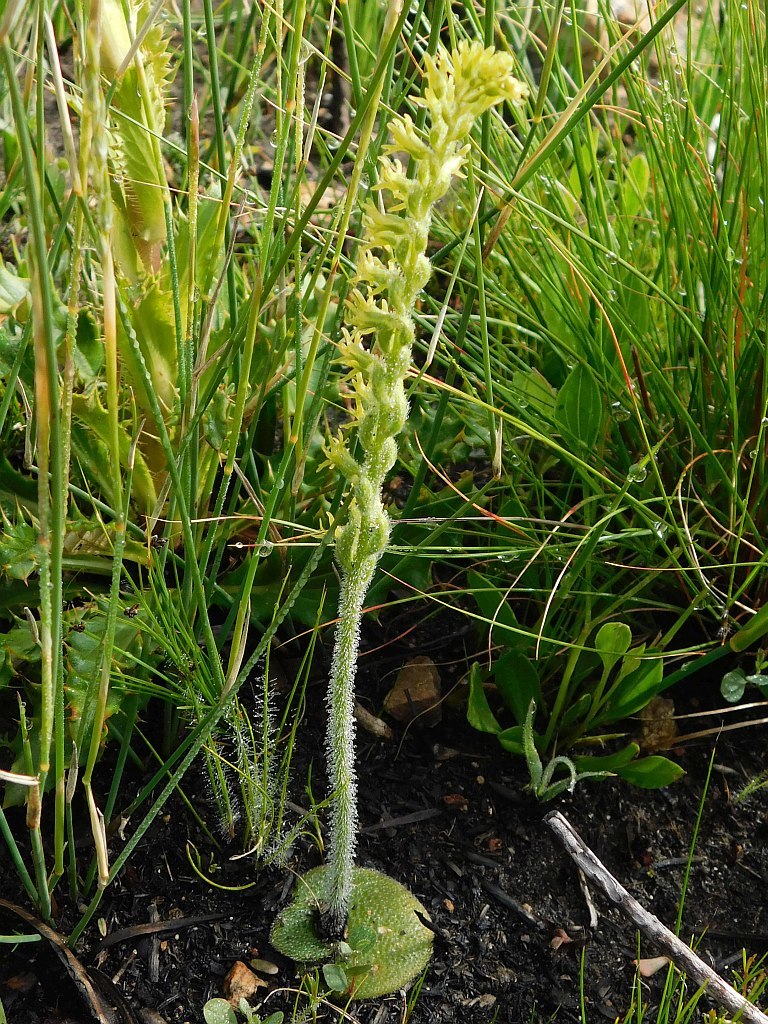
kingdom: Plantae
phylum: Tracheophyta
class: Liliopsida
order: Asparagales
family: Orchidaceae
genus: Holothrix
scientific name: Holothrix cernua
